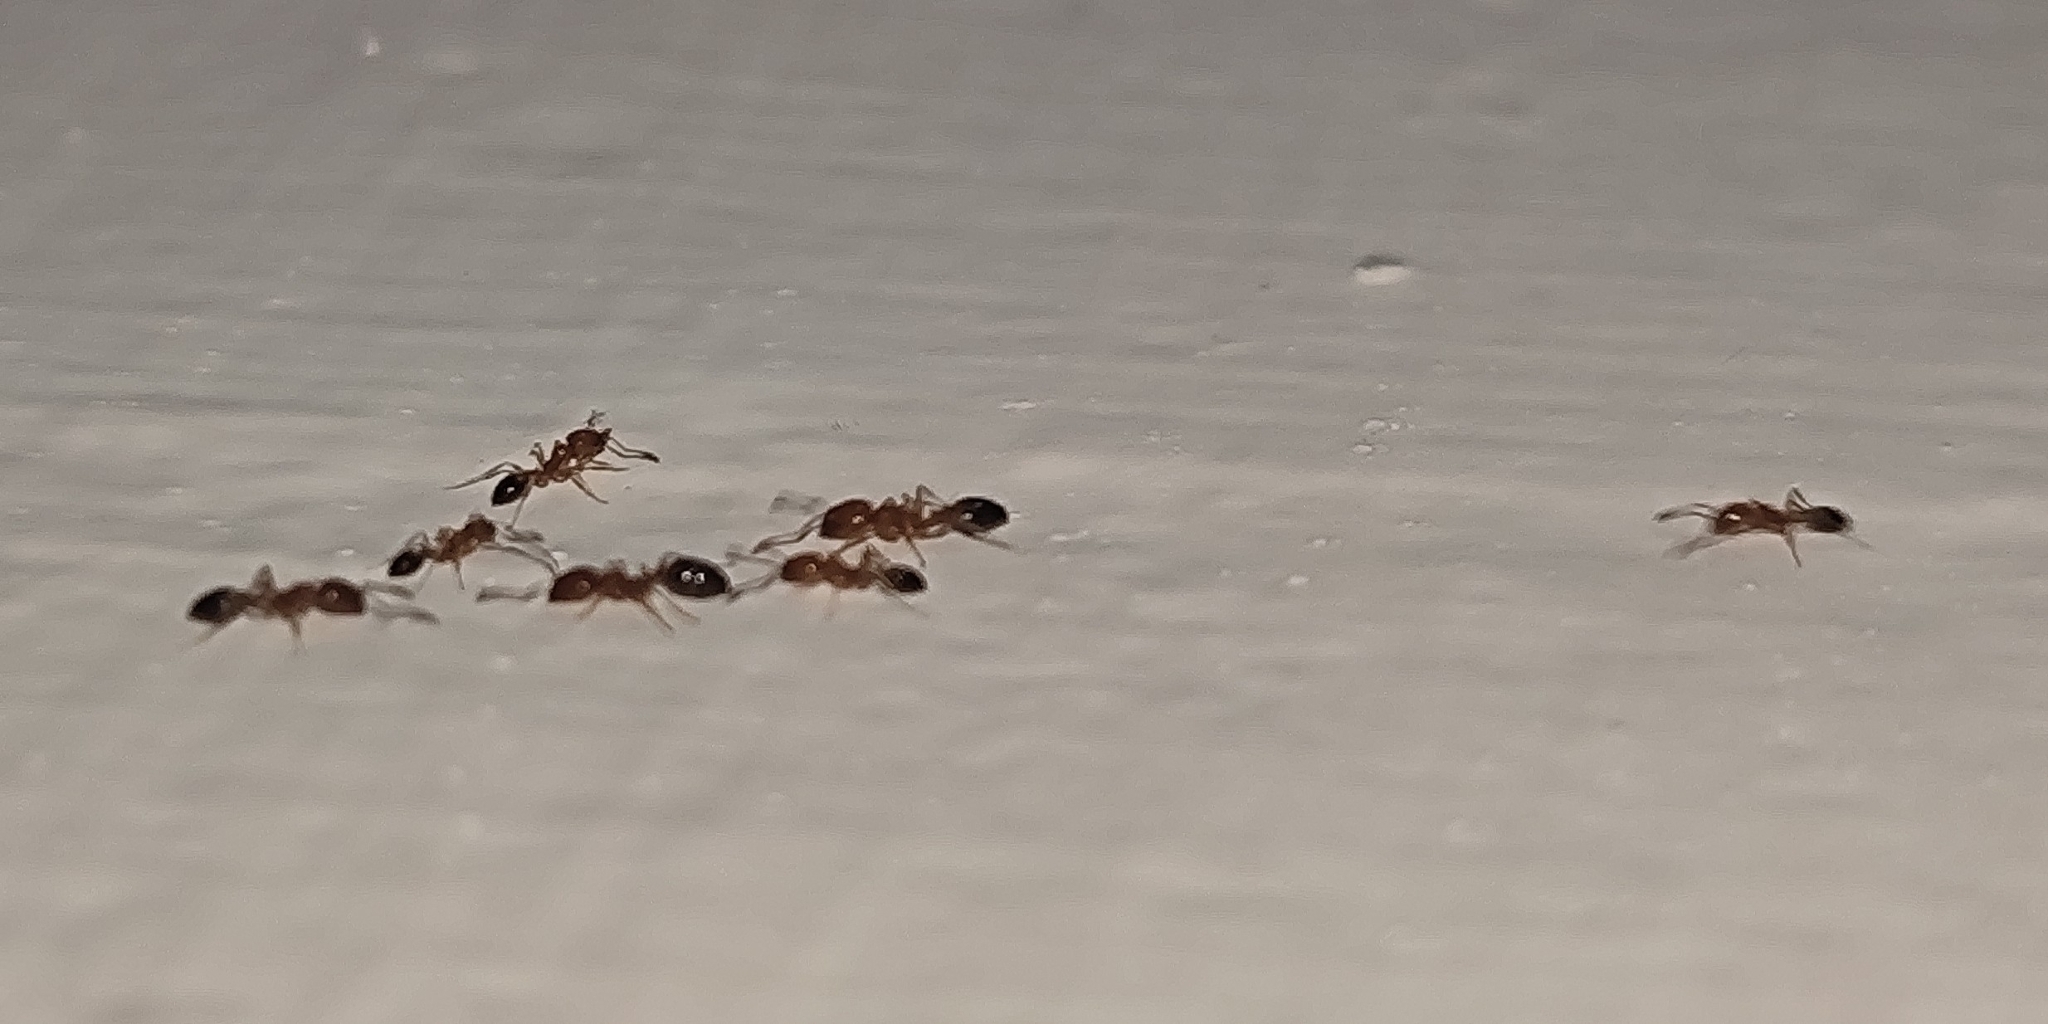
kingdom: Animalia
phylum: Arthropoda
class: Insecta
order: Hymenoptera
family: Formicidae
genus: Monomorium
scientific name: Monomorium destructor
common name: Destructive trailing ant
